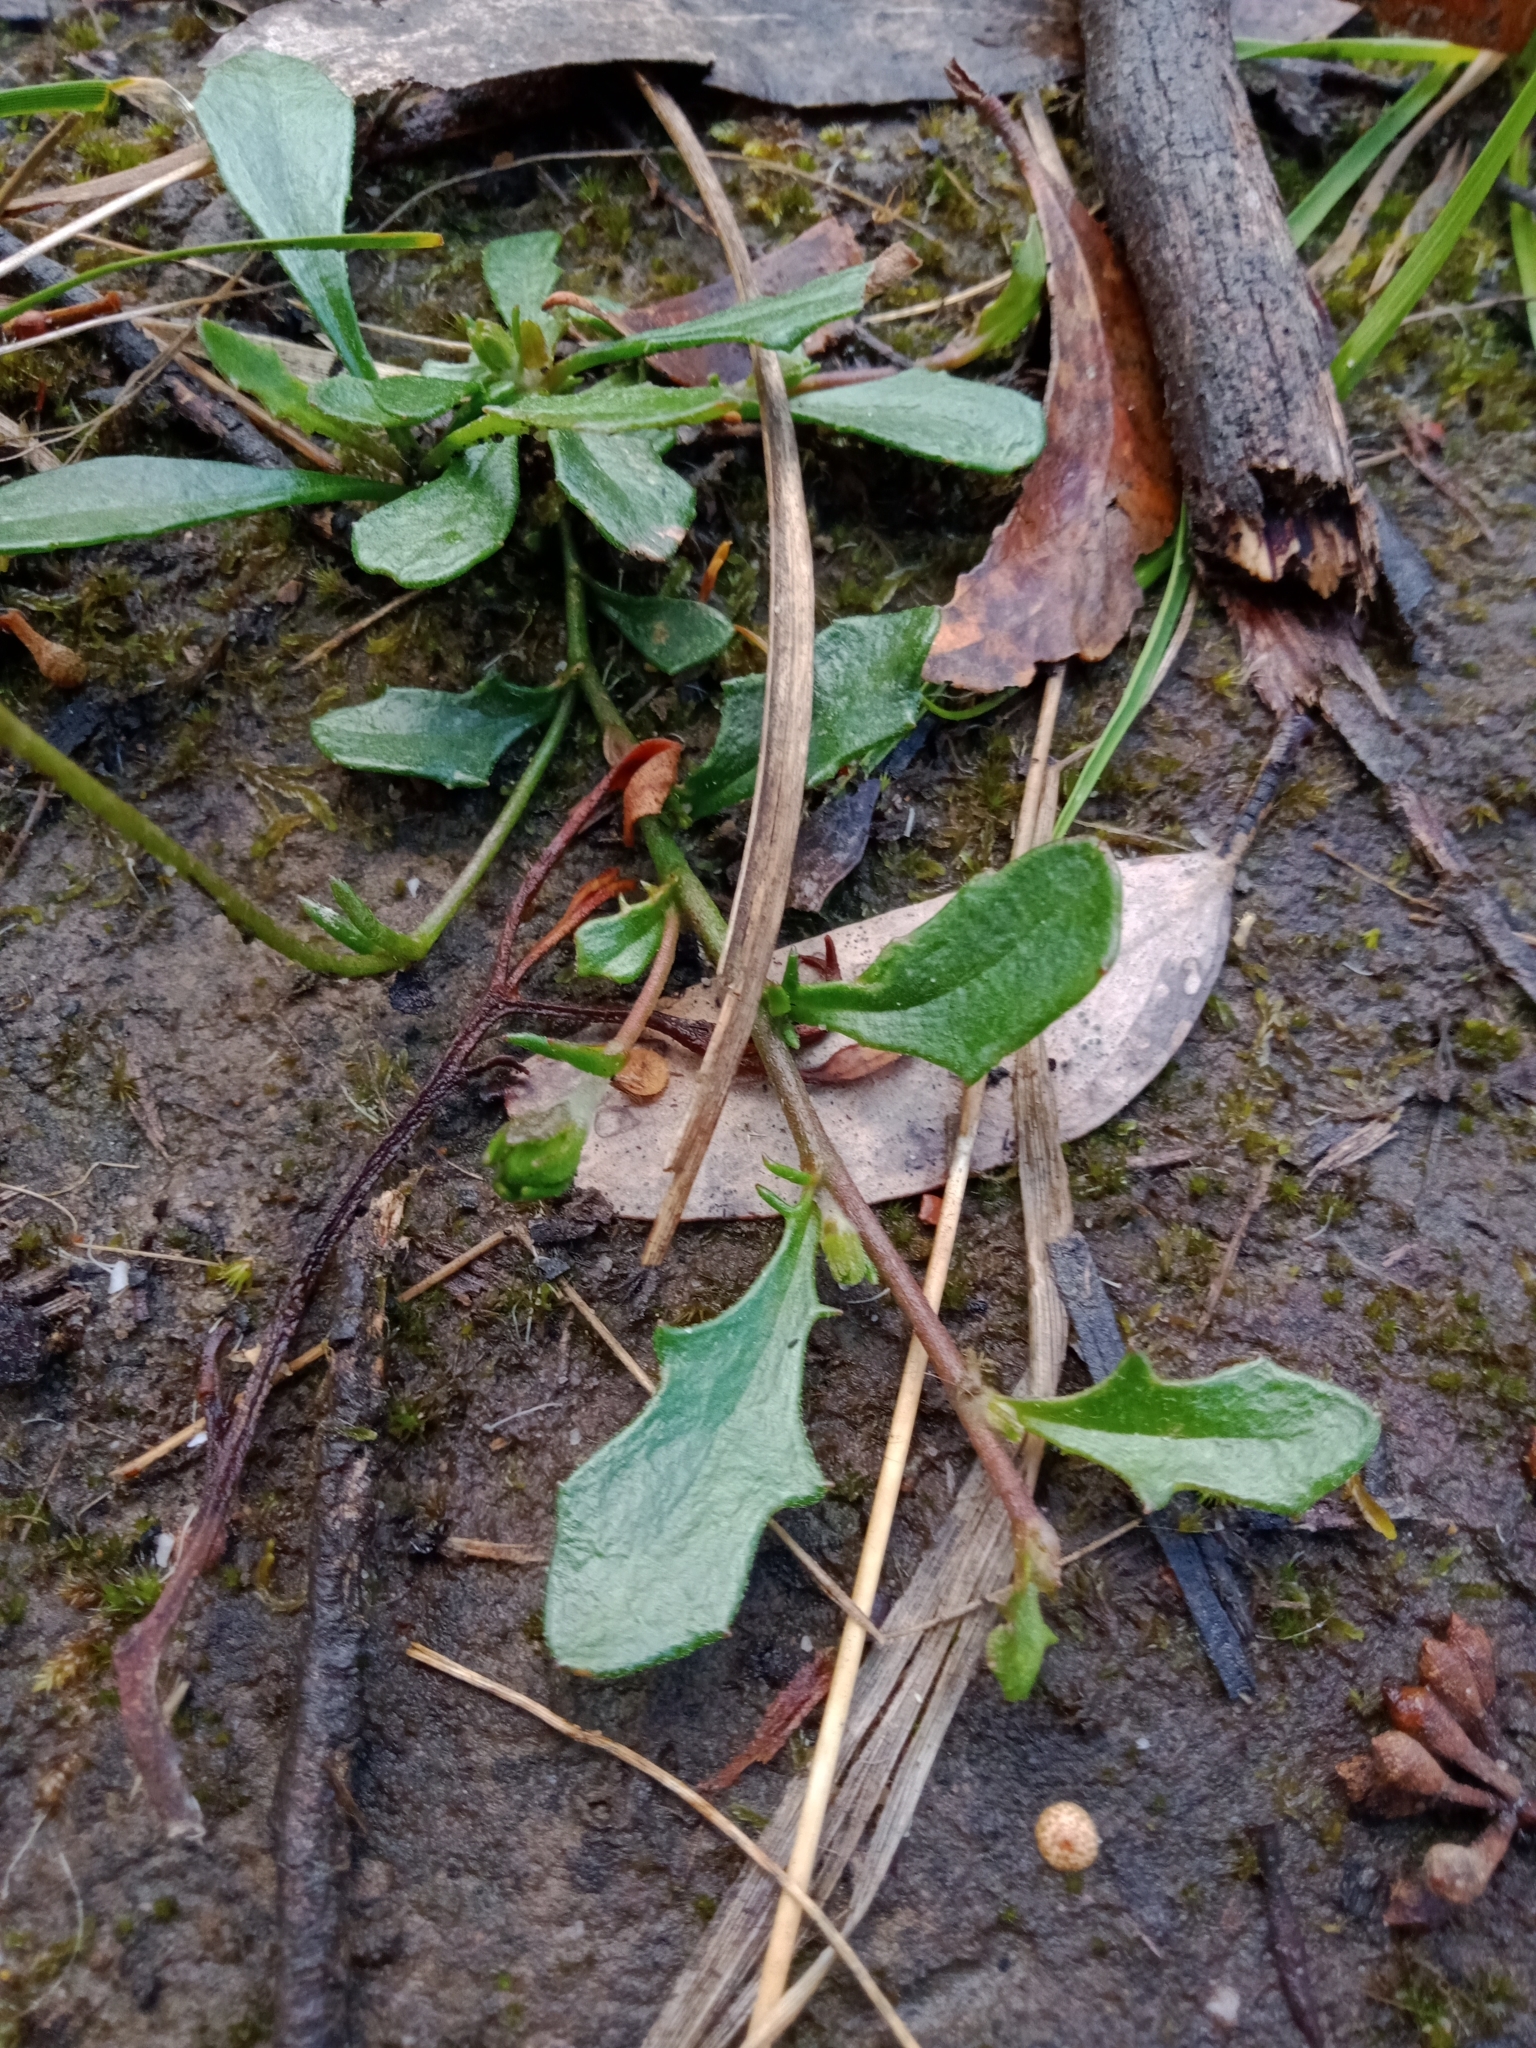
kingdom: Plantae
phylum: Tracheophyta
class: Magnoliopsida
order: Asterales
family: Goodeniaceae
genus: Goodenia
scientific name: Goodenia lanata
